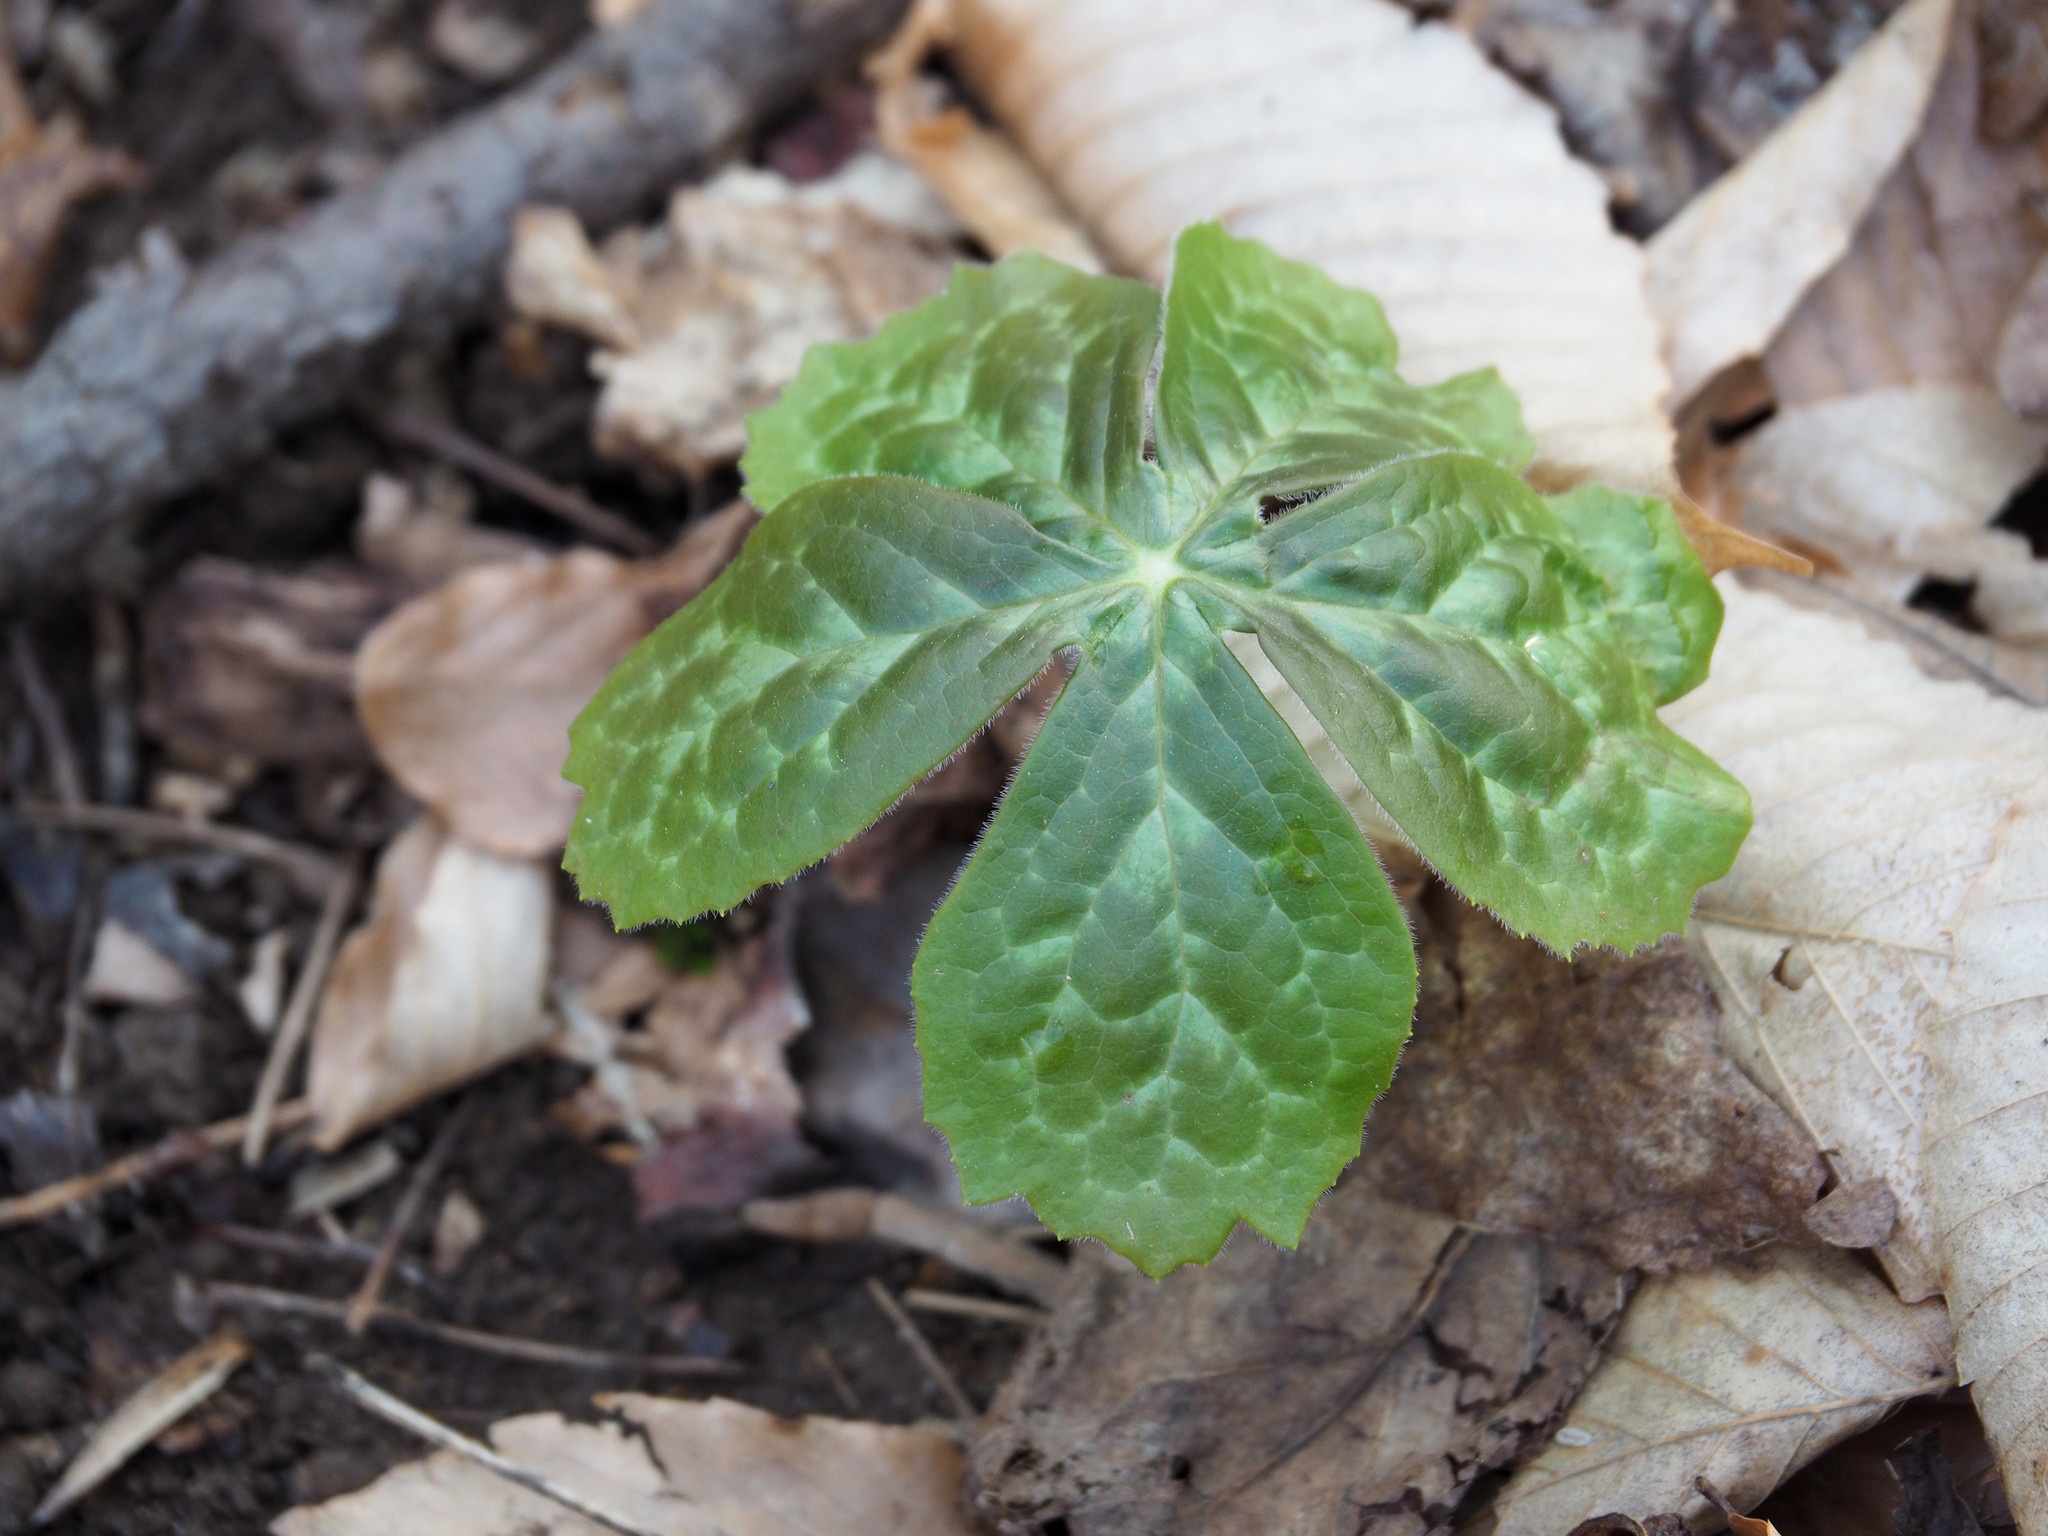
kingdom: Plantae
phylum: Tracheophyta
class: Magnoliopsida
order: Ranunculales
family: Berberidaceae
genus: Podophyllum
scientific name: Podophyllum peltatum
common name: Wild mandrake
